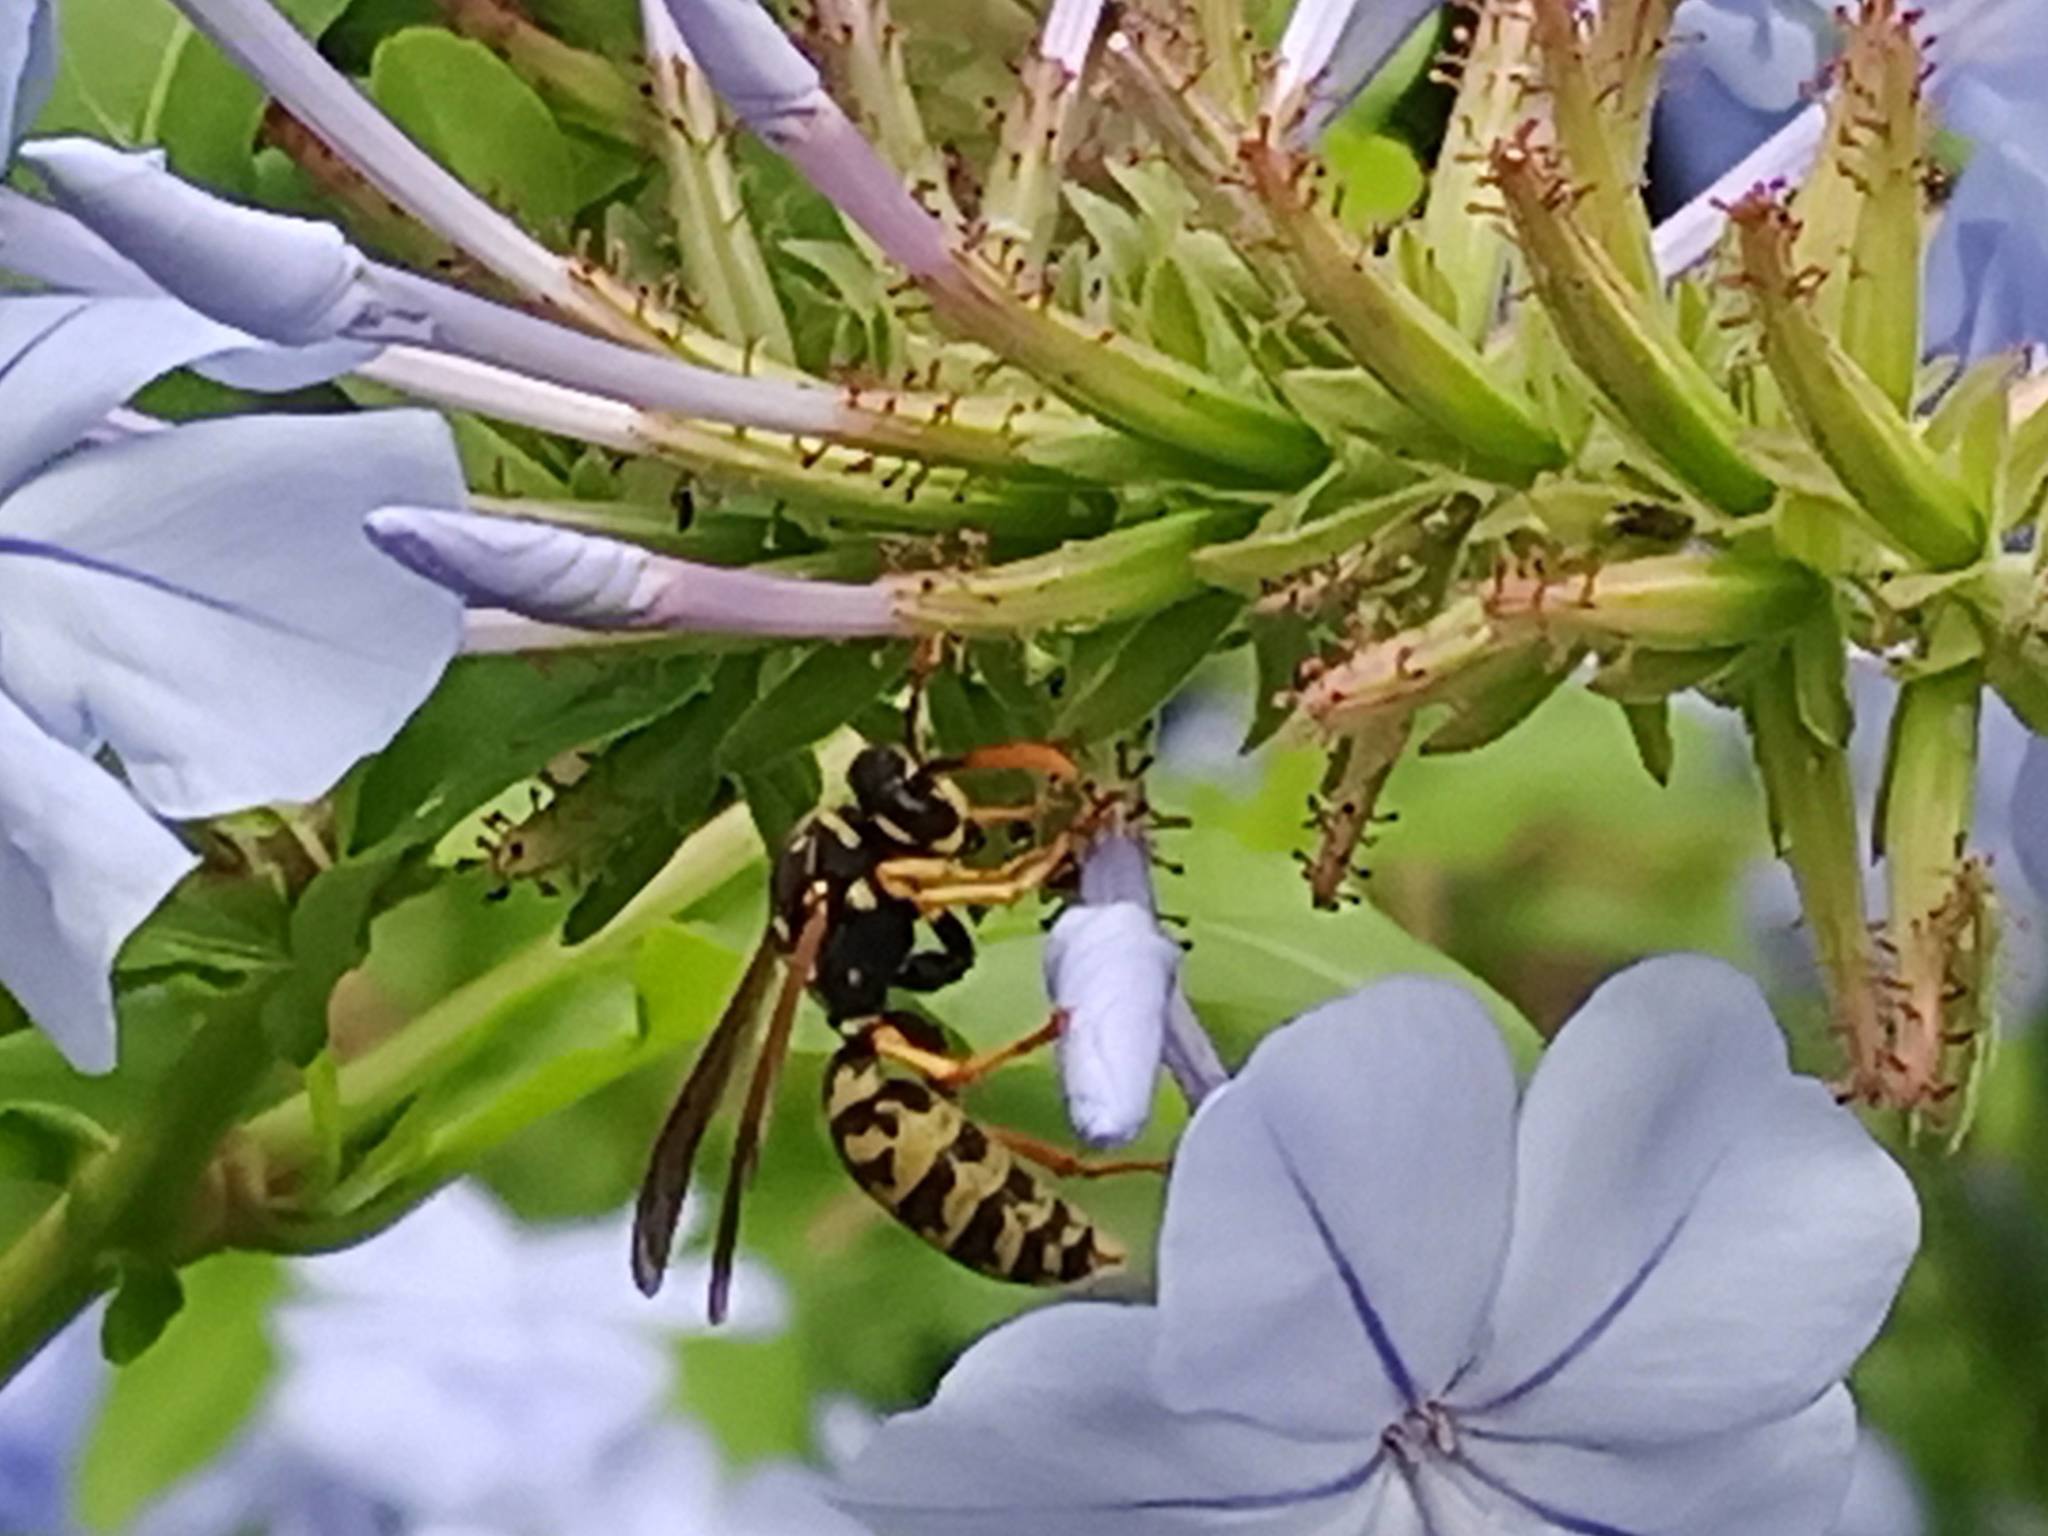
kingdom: Animalia
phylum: Arthropoda
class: Insecta
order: Hymenoptera
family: Eumenidae
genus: Polistes
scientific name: Polistes dominula
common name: Paper wasp
